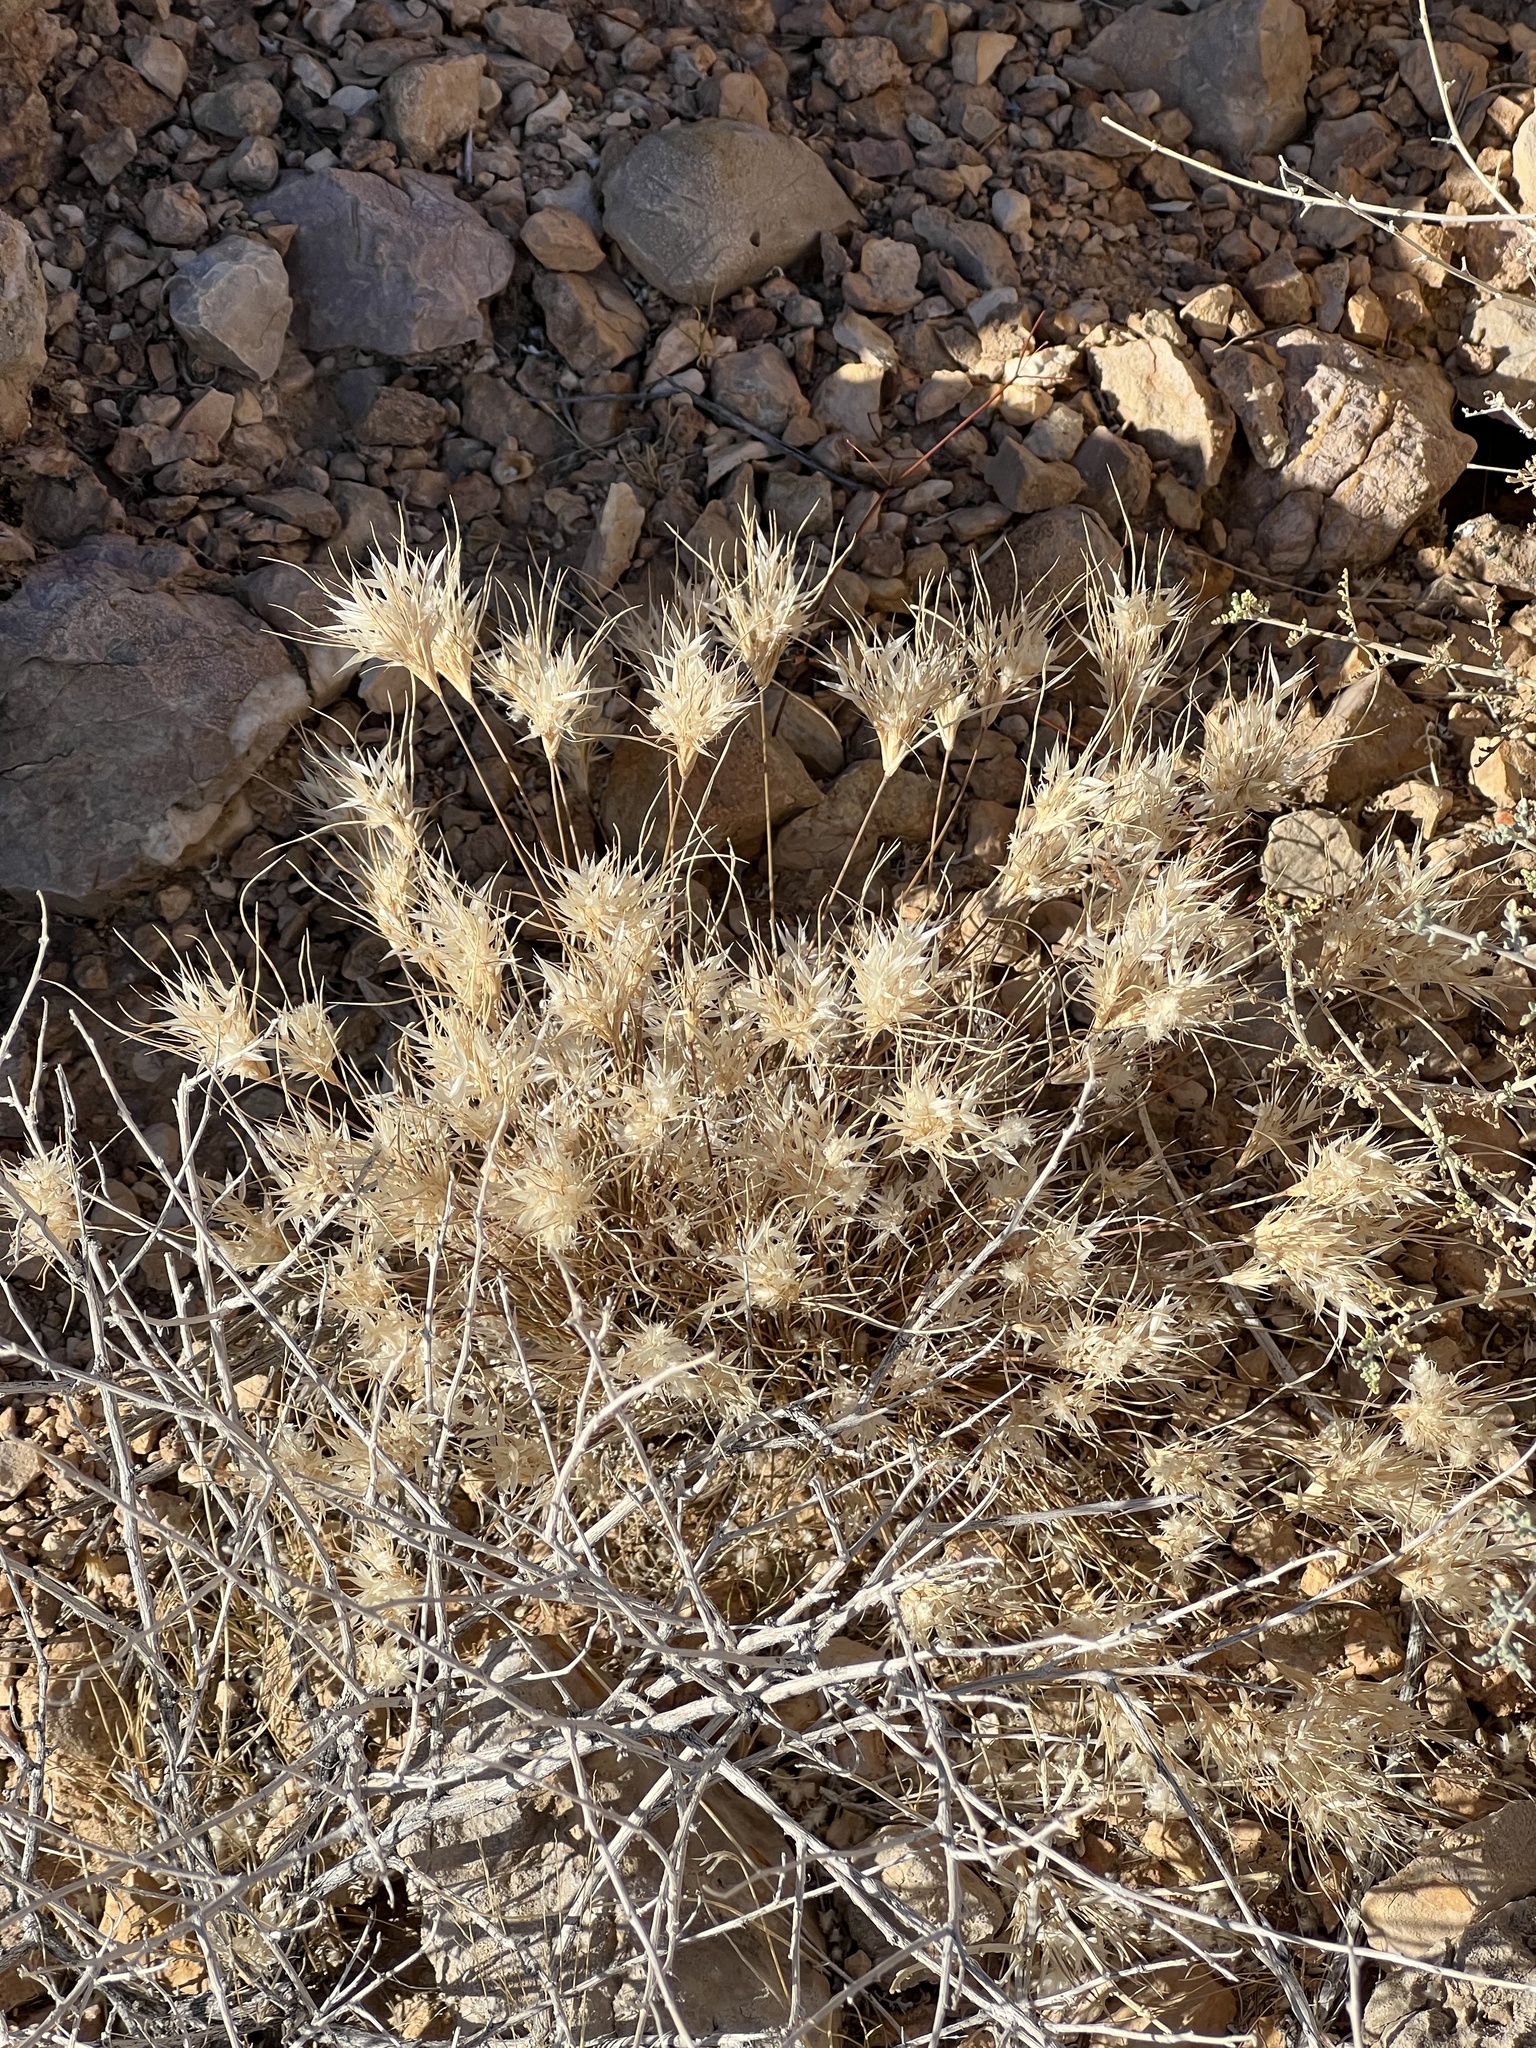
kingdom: Plantae
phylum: Tracheophyta
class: Liliopsida
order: Poales
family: Poaceae
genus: Dasyochloa
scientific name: Dasyochloa pulchella
